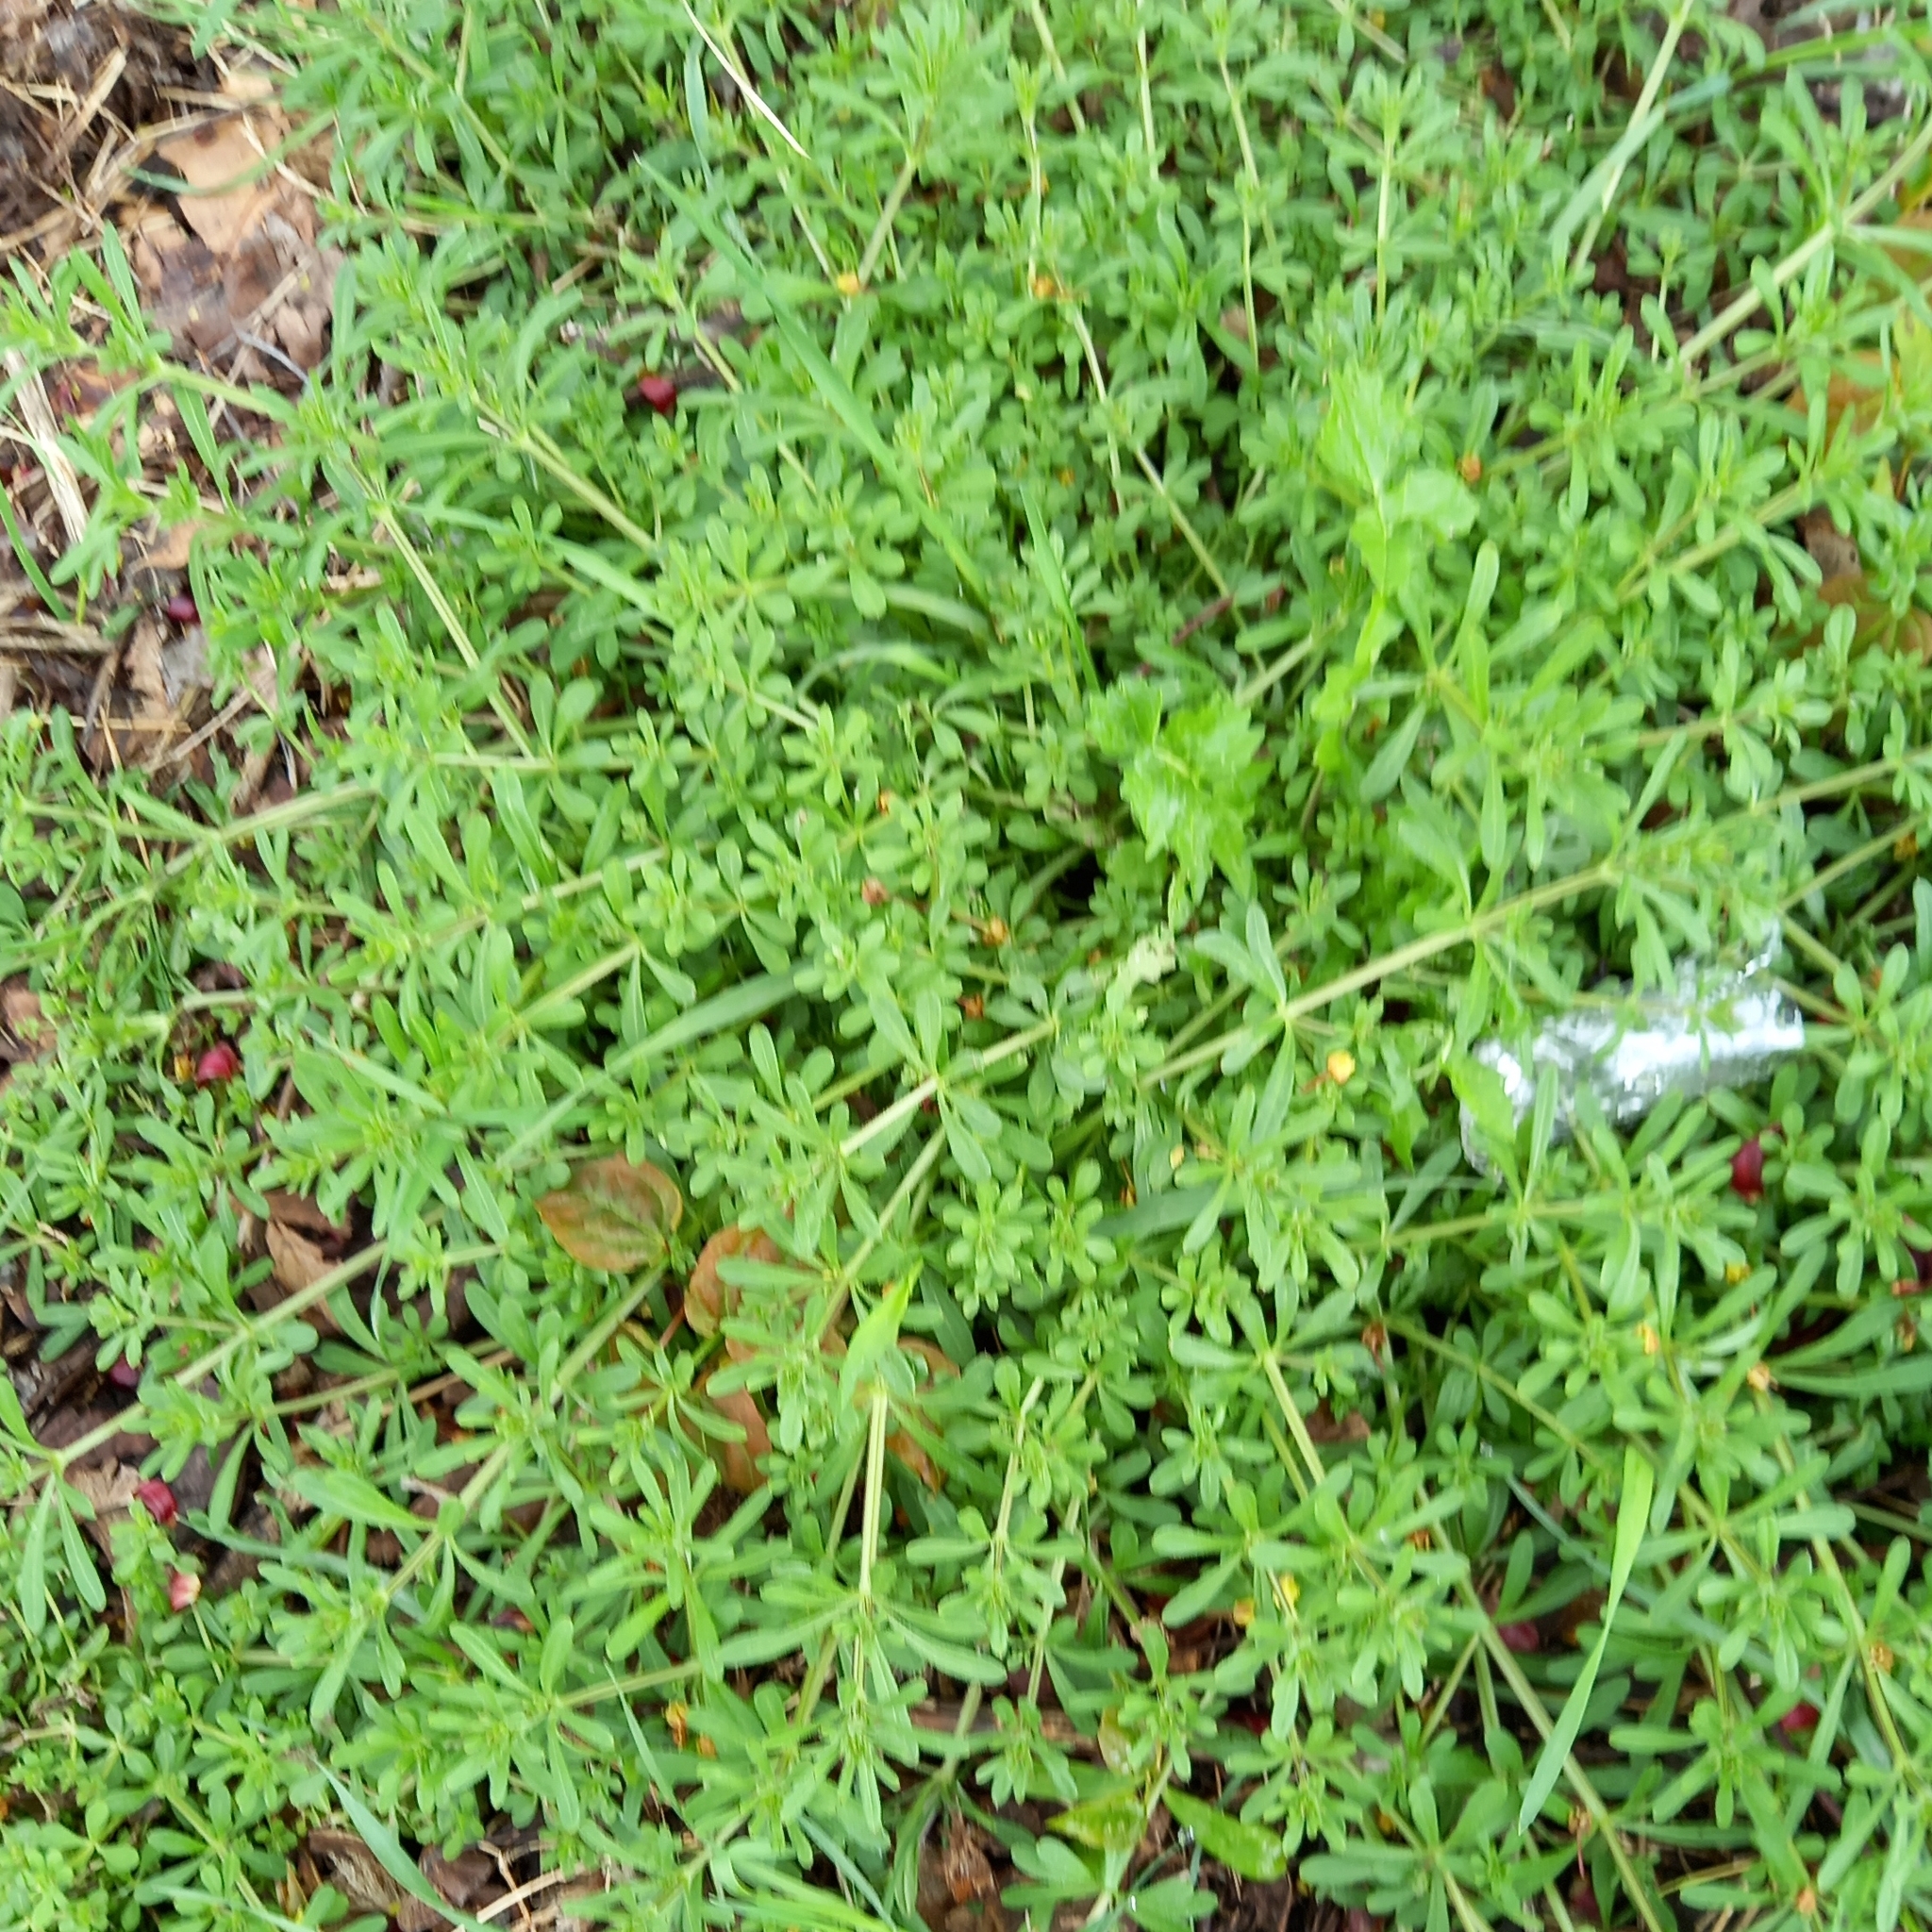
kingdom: Plantae
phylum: Tracheophyta
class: Magnoliopsida
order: Gentianales
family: Rubiaceae
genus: Galium
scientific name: Galium aparine
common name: Cleavers
